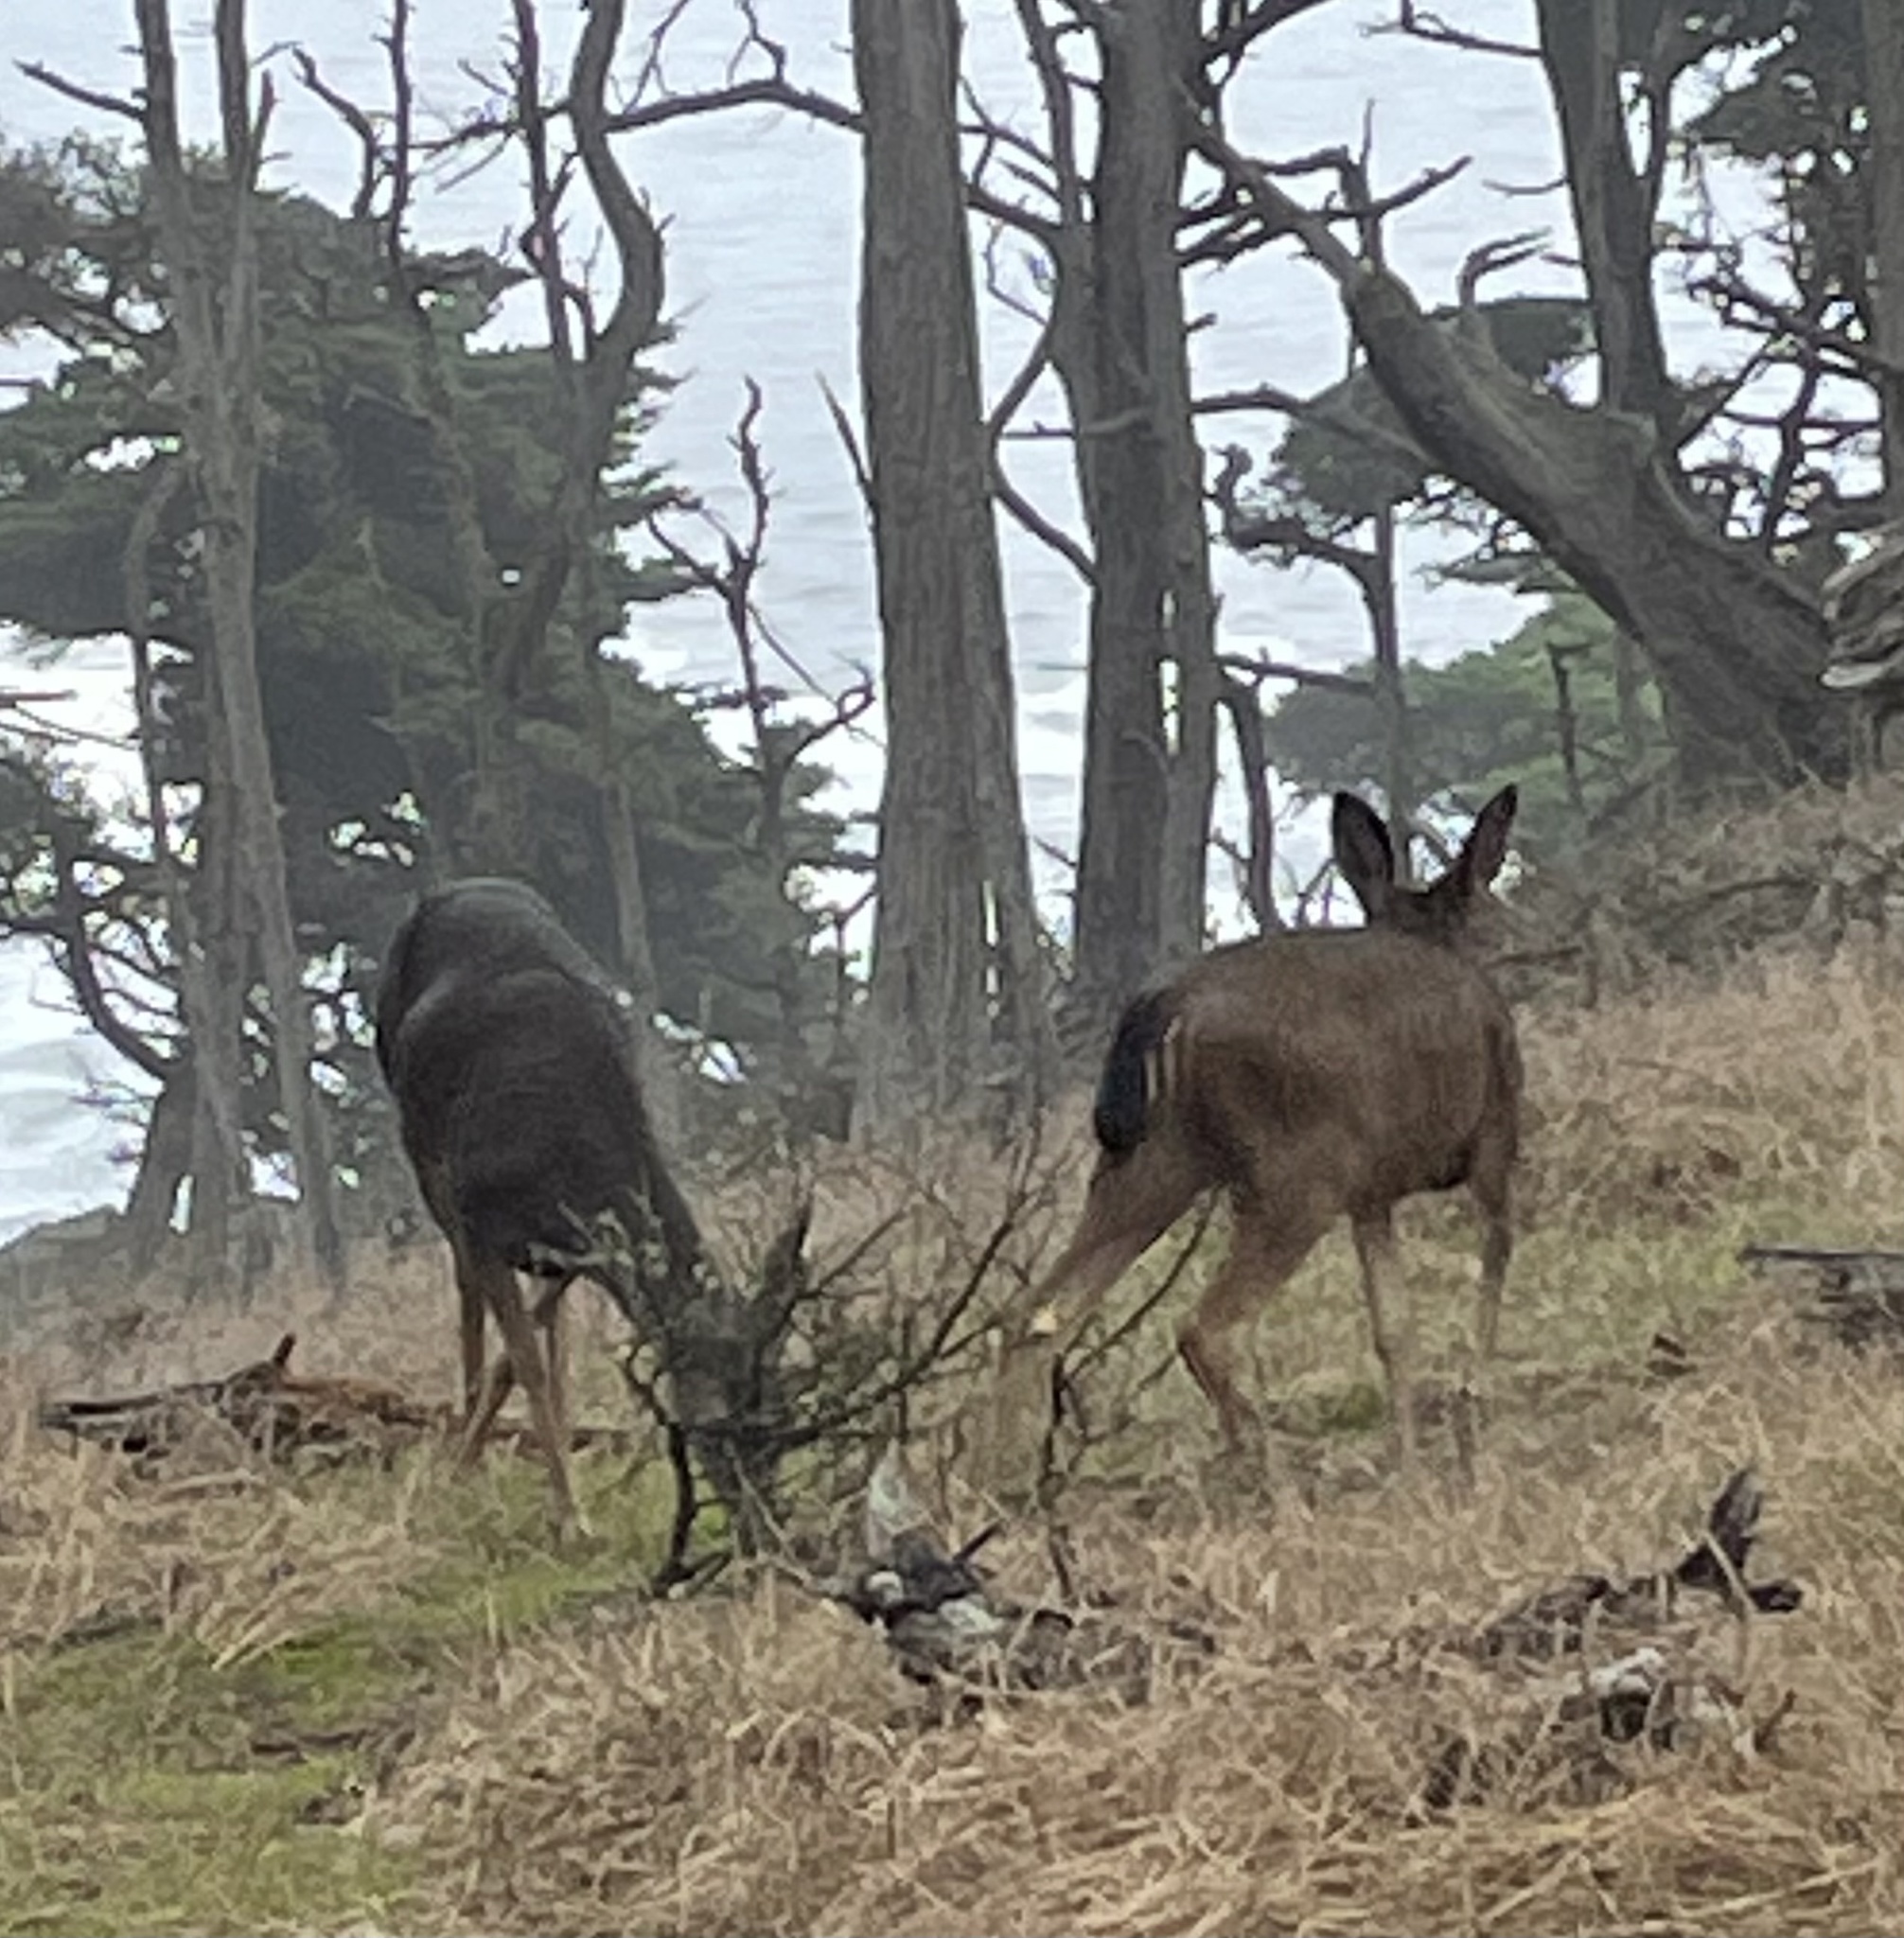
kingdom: Animalia
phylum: Chordata
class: Mammalia
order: Artiodactyla
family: Cervidae
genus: Odocoileus
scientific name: Odocoileus hemionus
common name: Mule deer
